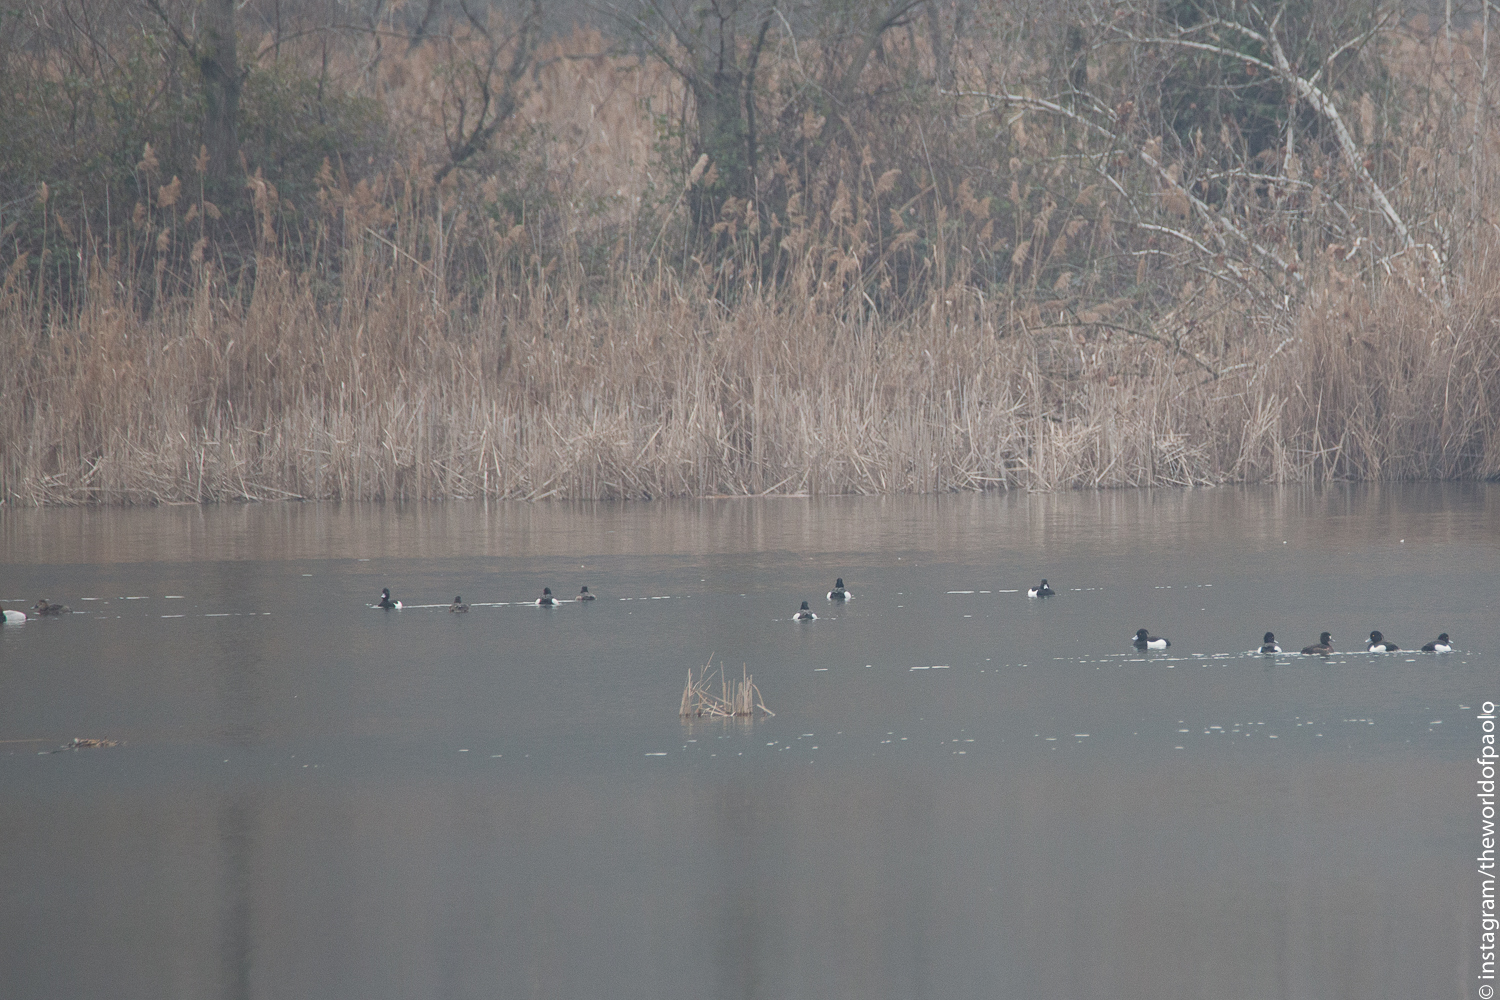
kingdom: Animalia
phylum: Chordata
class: Aves
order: Anseriformes
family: Anatidae
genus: Aythya
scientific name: Aythya fuligula
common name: Tufted duck
